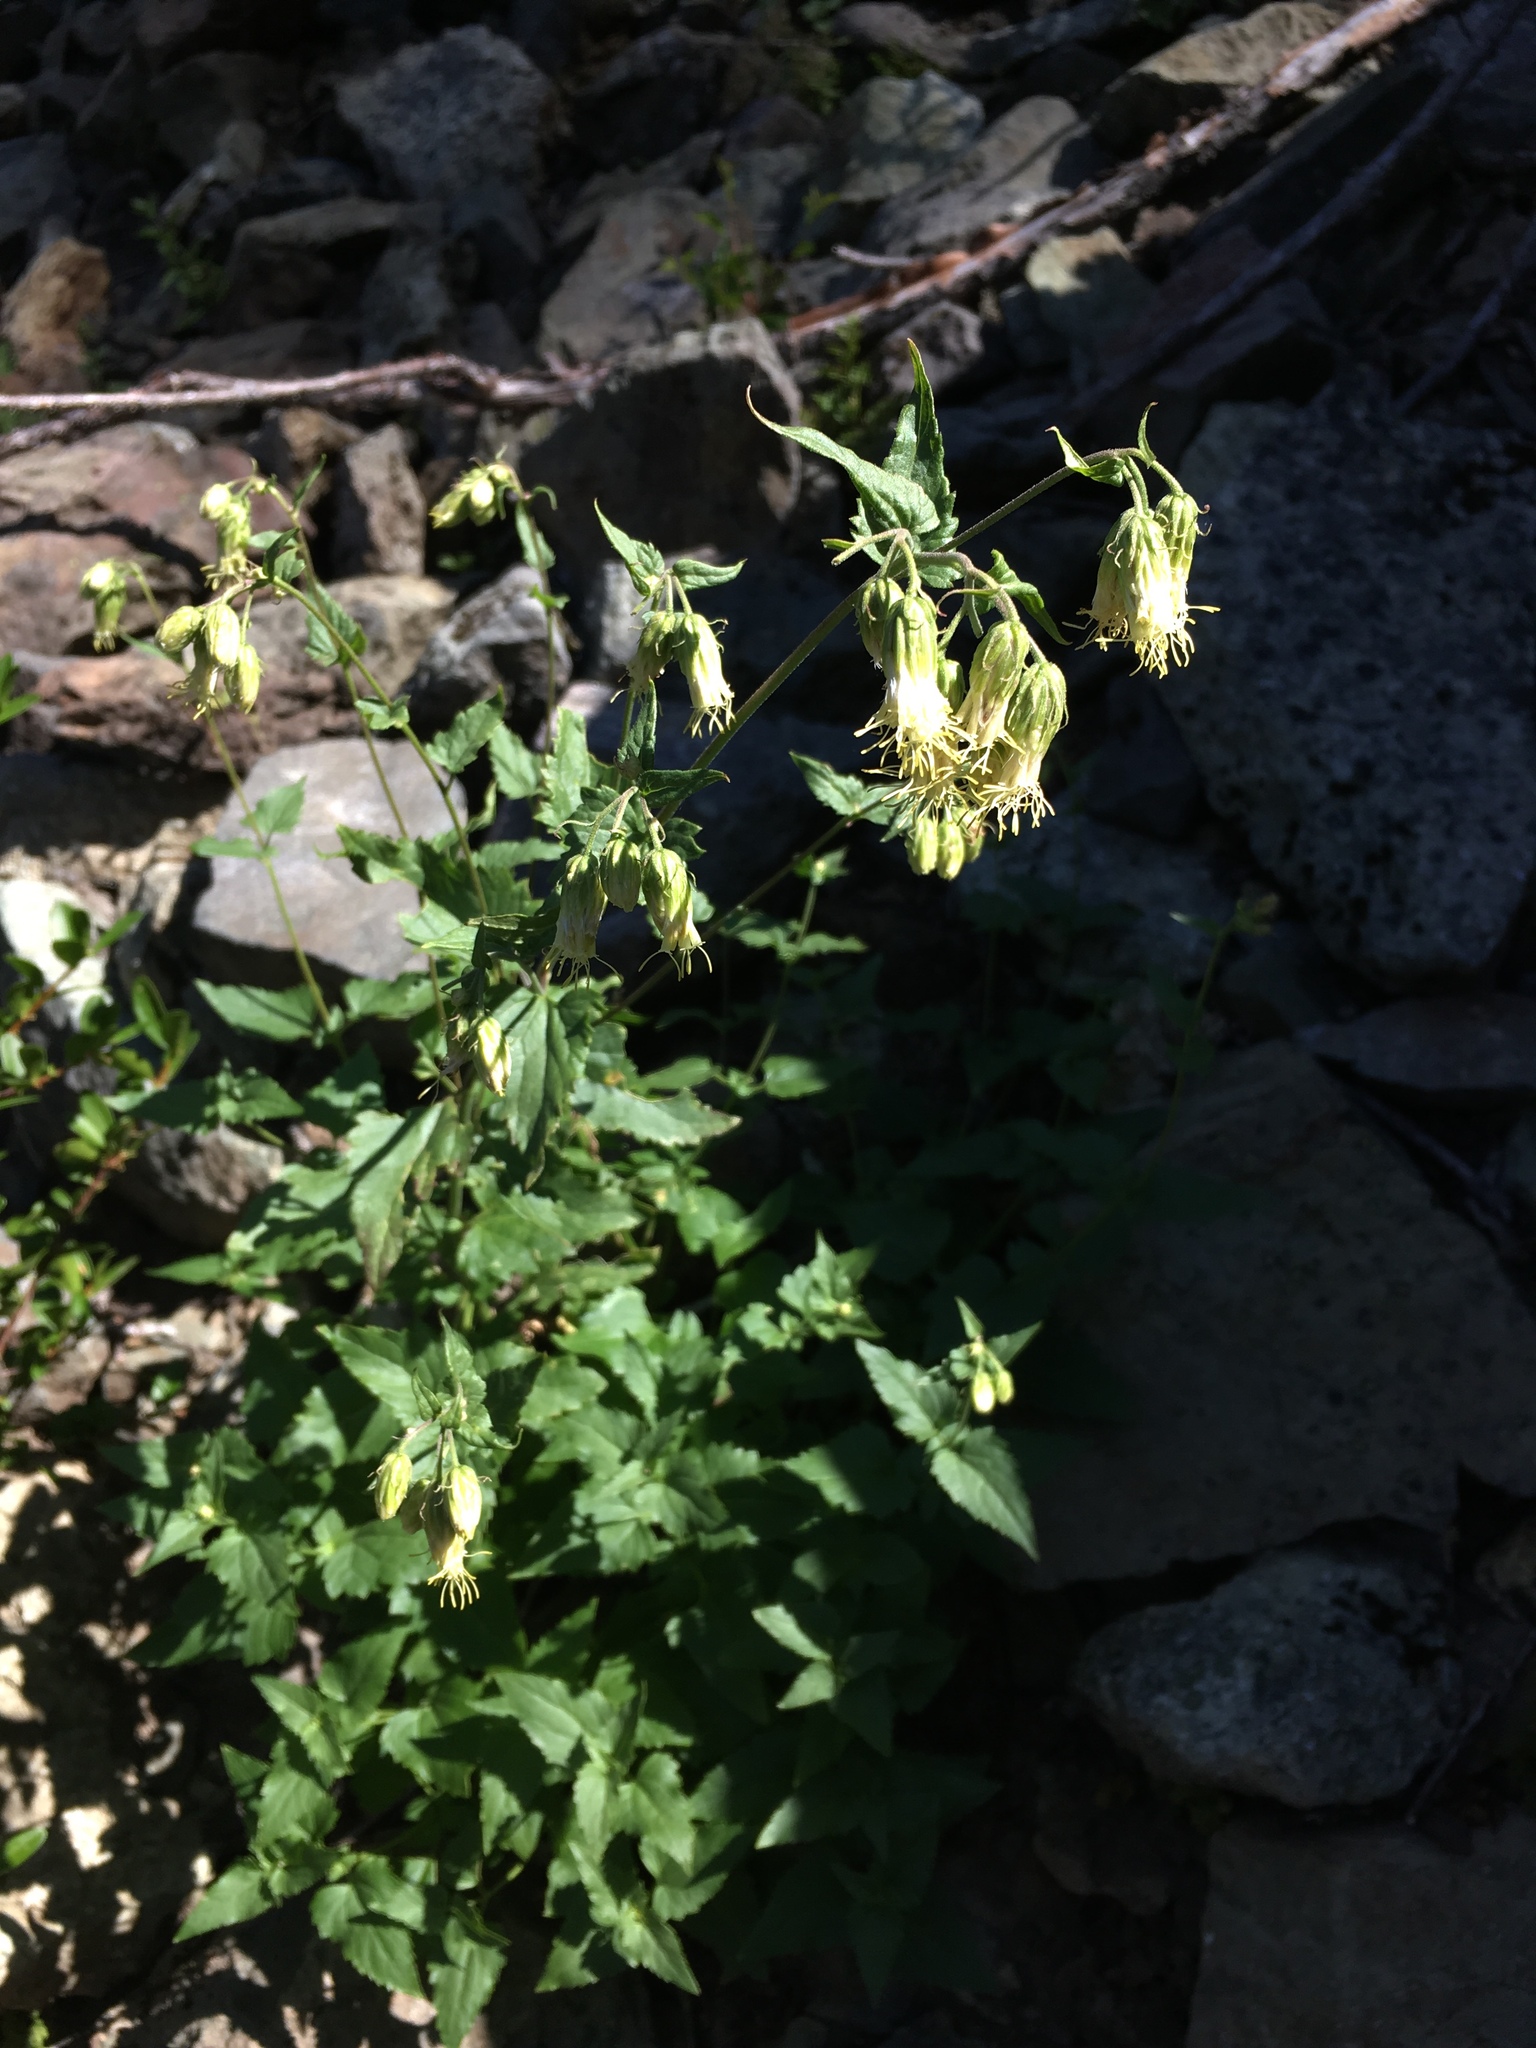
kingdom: Plantae
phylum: Tracheophyta
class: Magnoliopsida
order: Asterales
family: Asteraceae
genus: Brickellia
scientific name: Brickellia grandiflora
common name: Large-flowered brickellia
